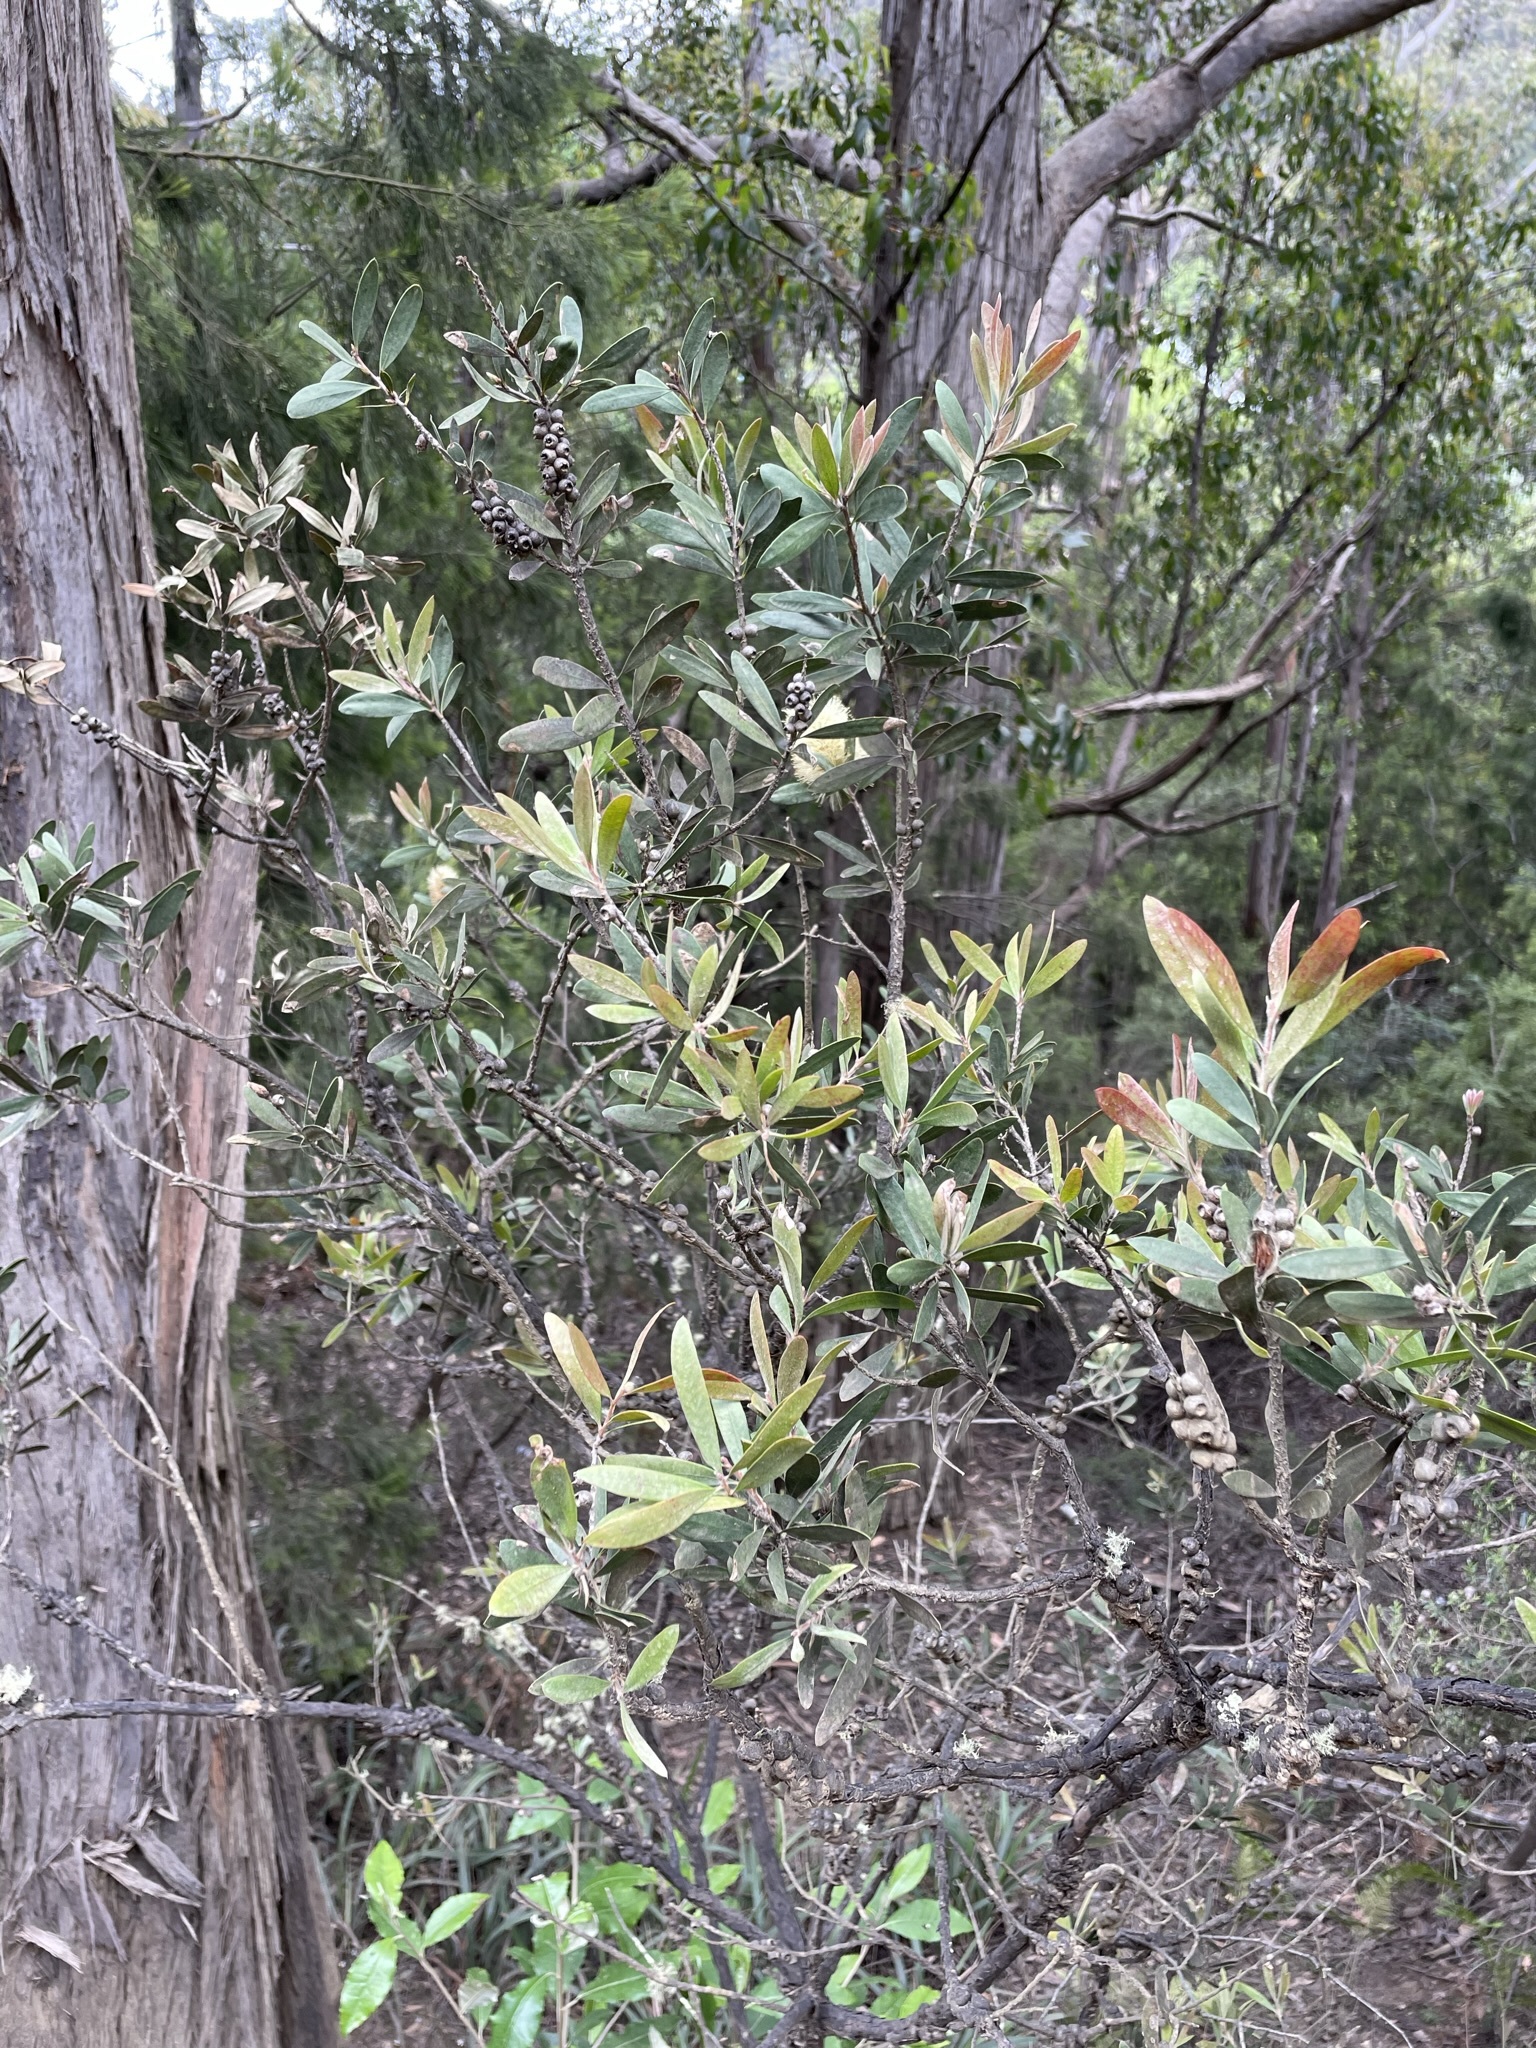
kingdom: Plantae
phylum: Tracheophyta
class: Magnoliopsida
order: Myrtales
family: Myrtaceae
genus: Melaleuca
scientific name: Melaleuca pallida
